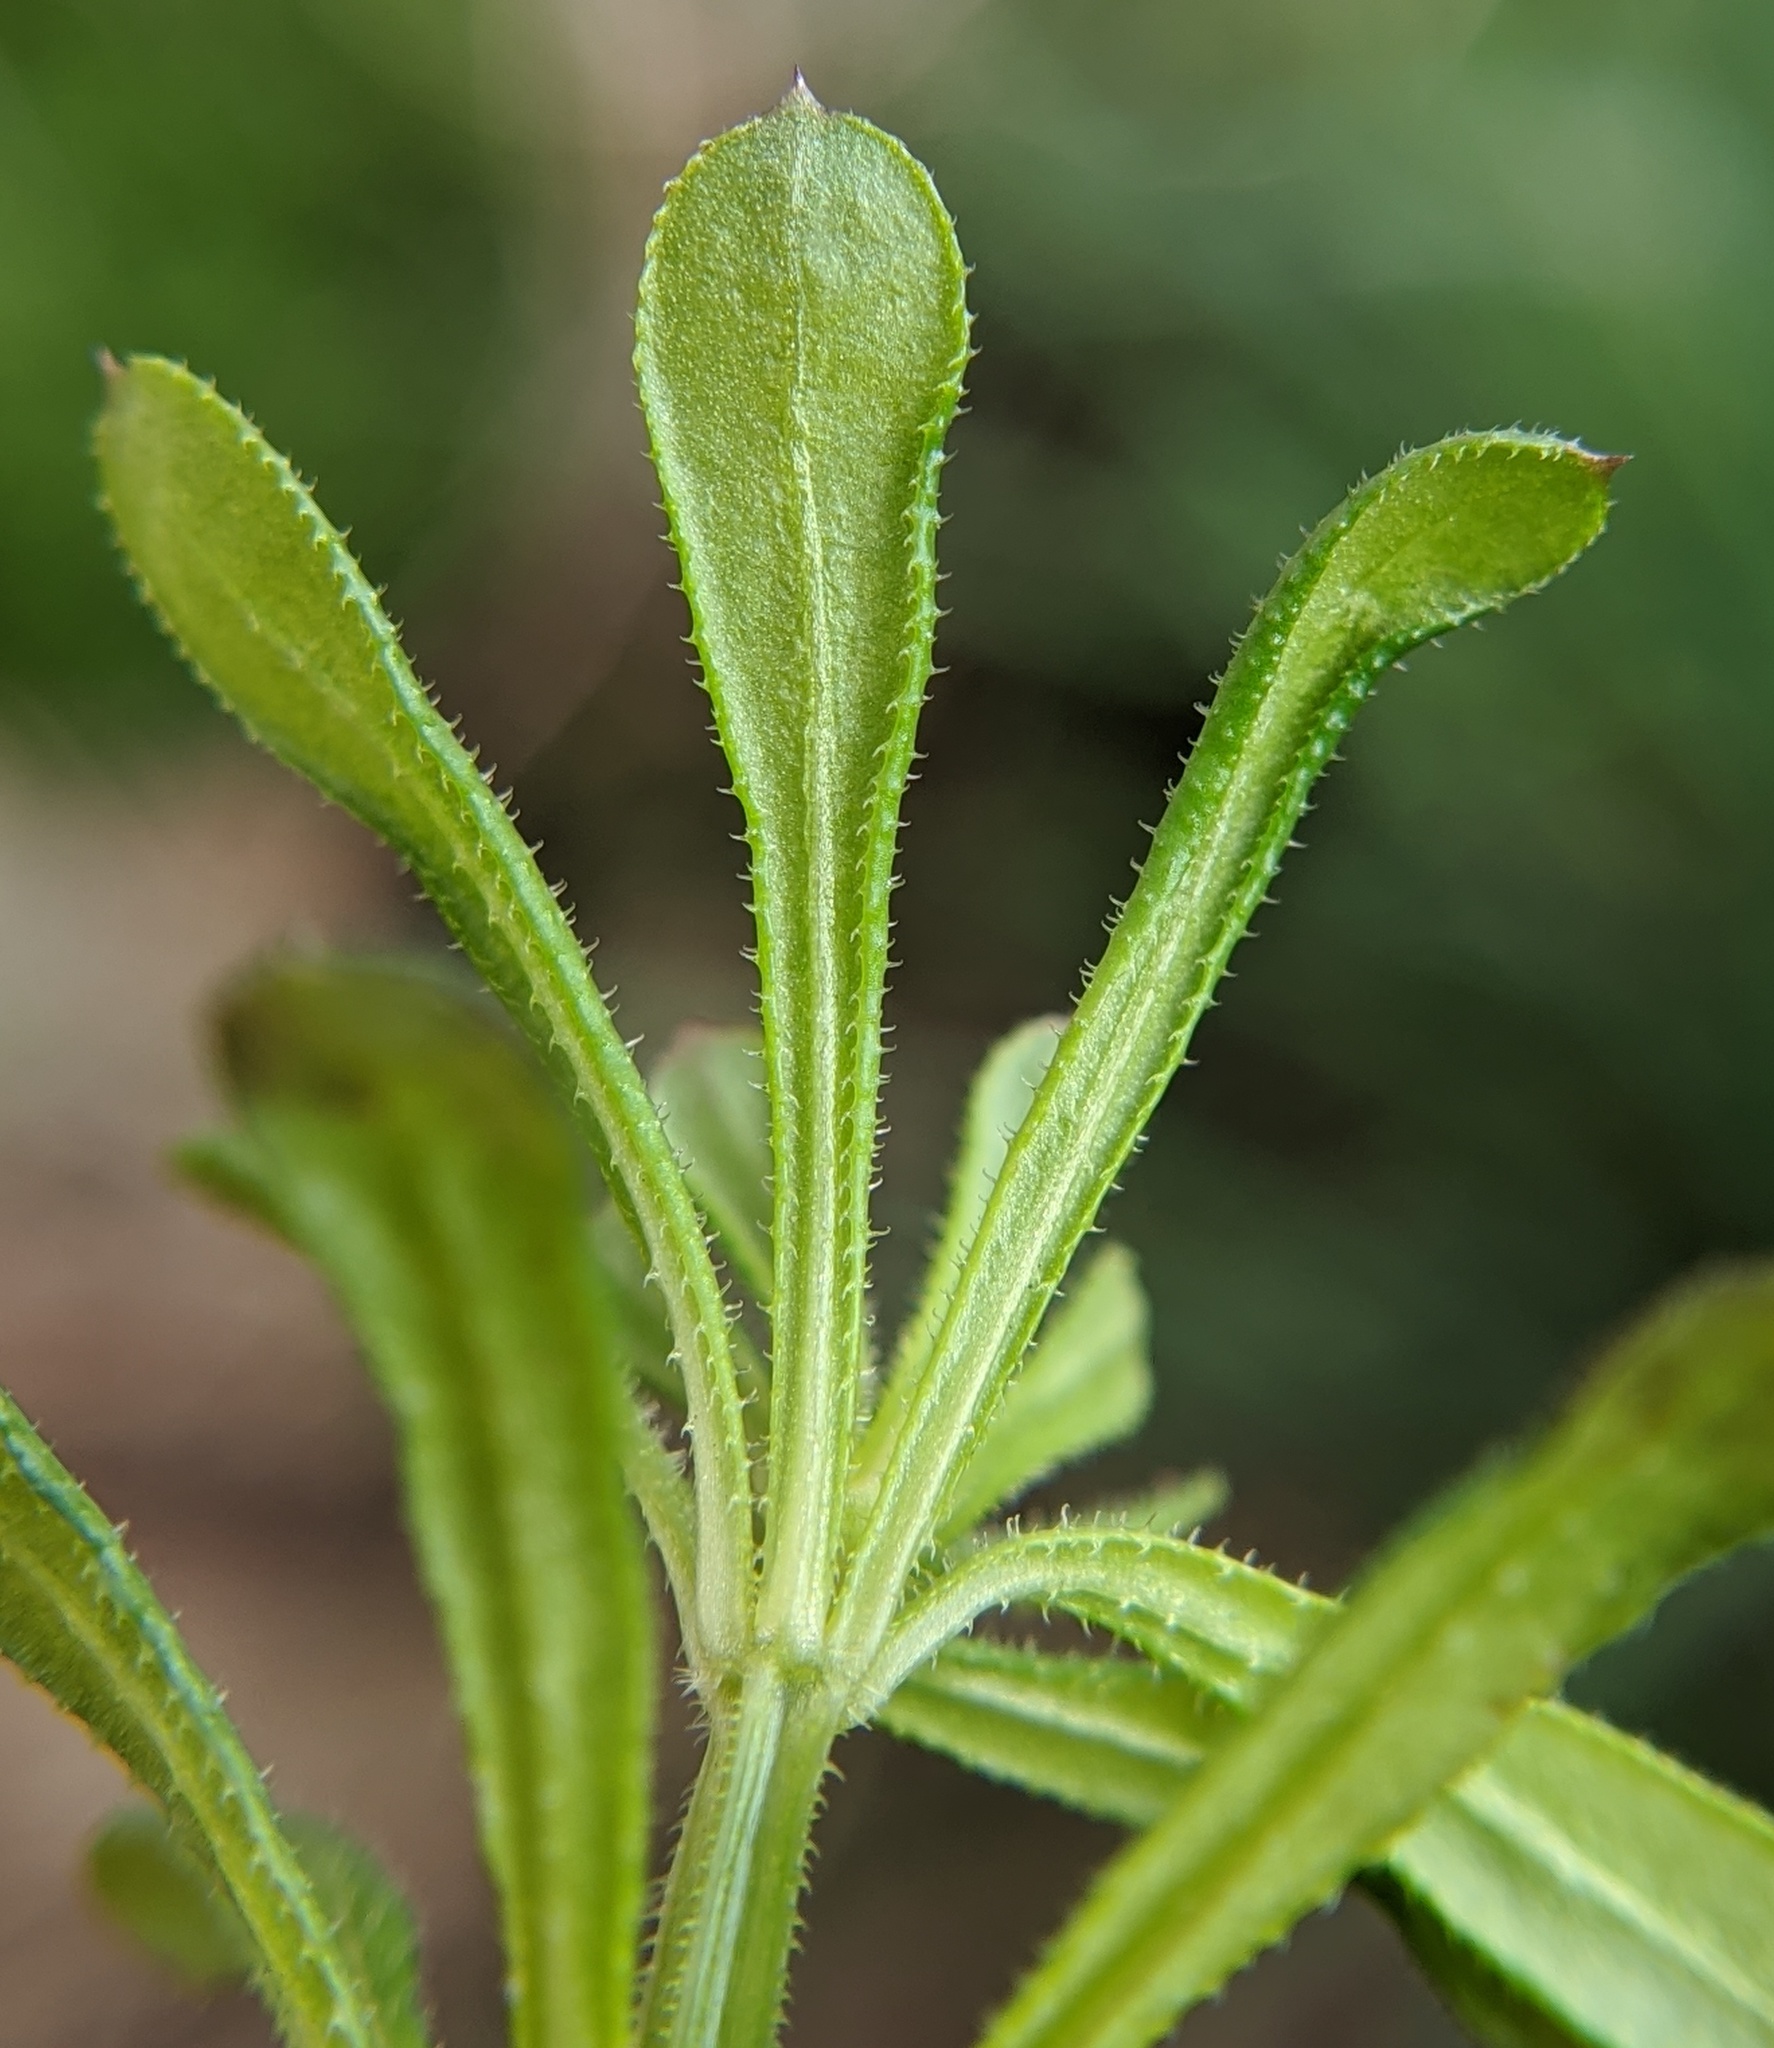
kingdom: Plantae
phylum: Tracheophyta
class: Magnoliopsida
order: Gentianales
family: Rubiaceae
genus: Galium
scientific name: Galium aparine
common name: Cleavers
